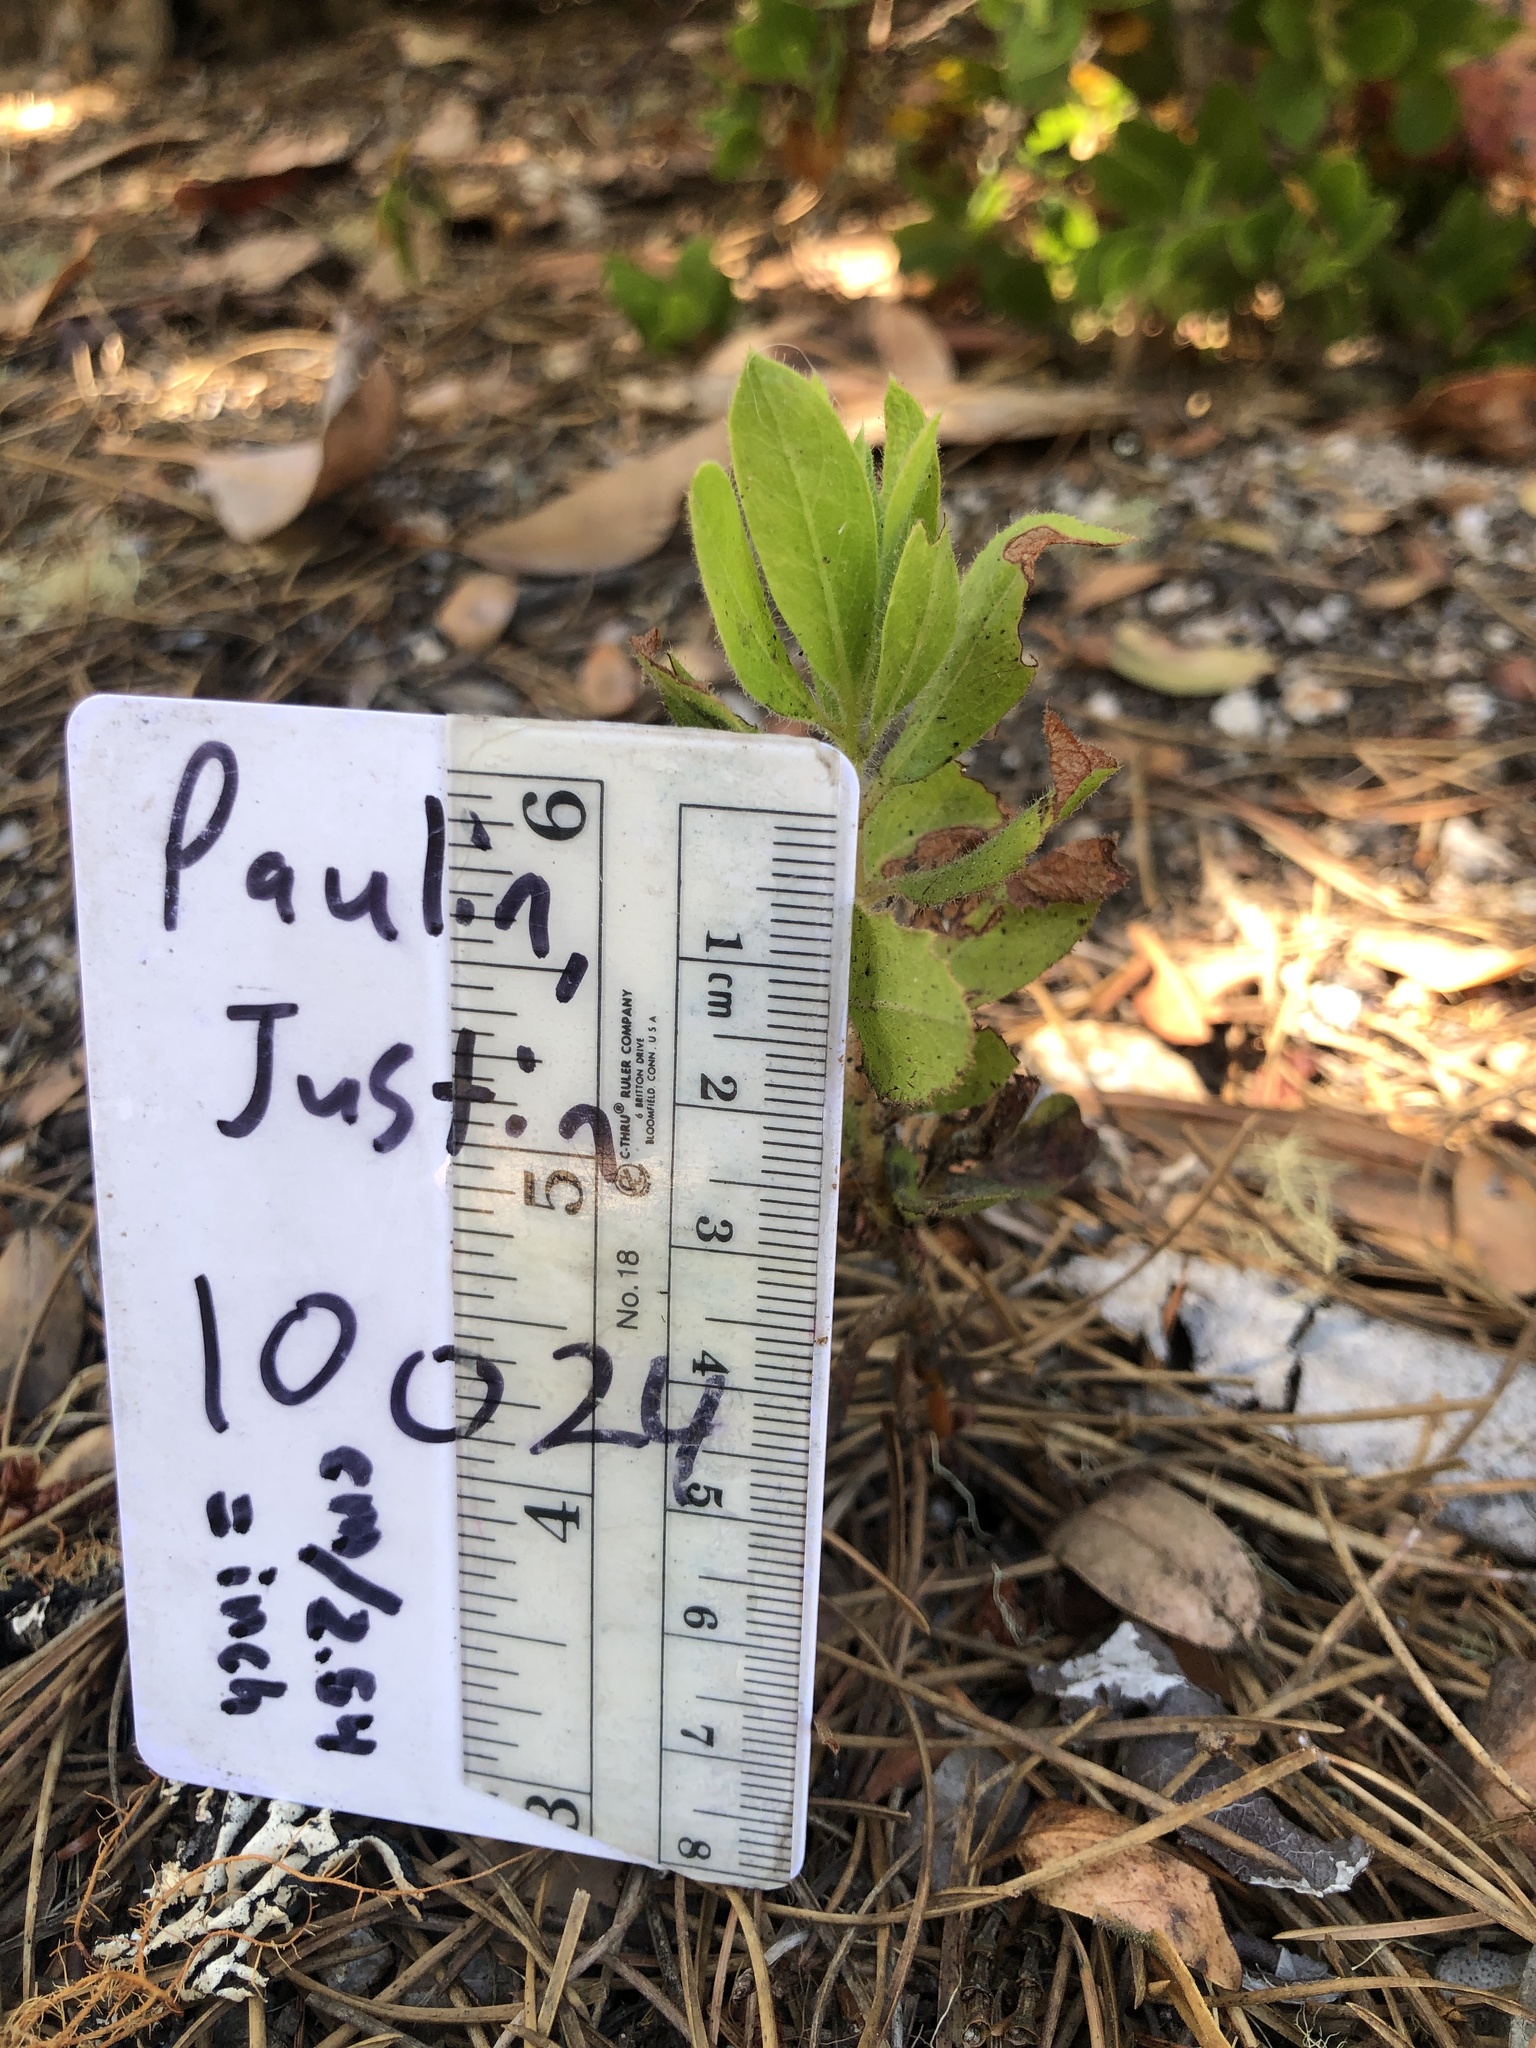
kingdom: Plantae
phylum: Tracheophyta
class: Magnoliopsida
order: Ericales
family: Ericaceae
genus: Arctostaphylos
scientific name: Arctostaphylos virgata
